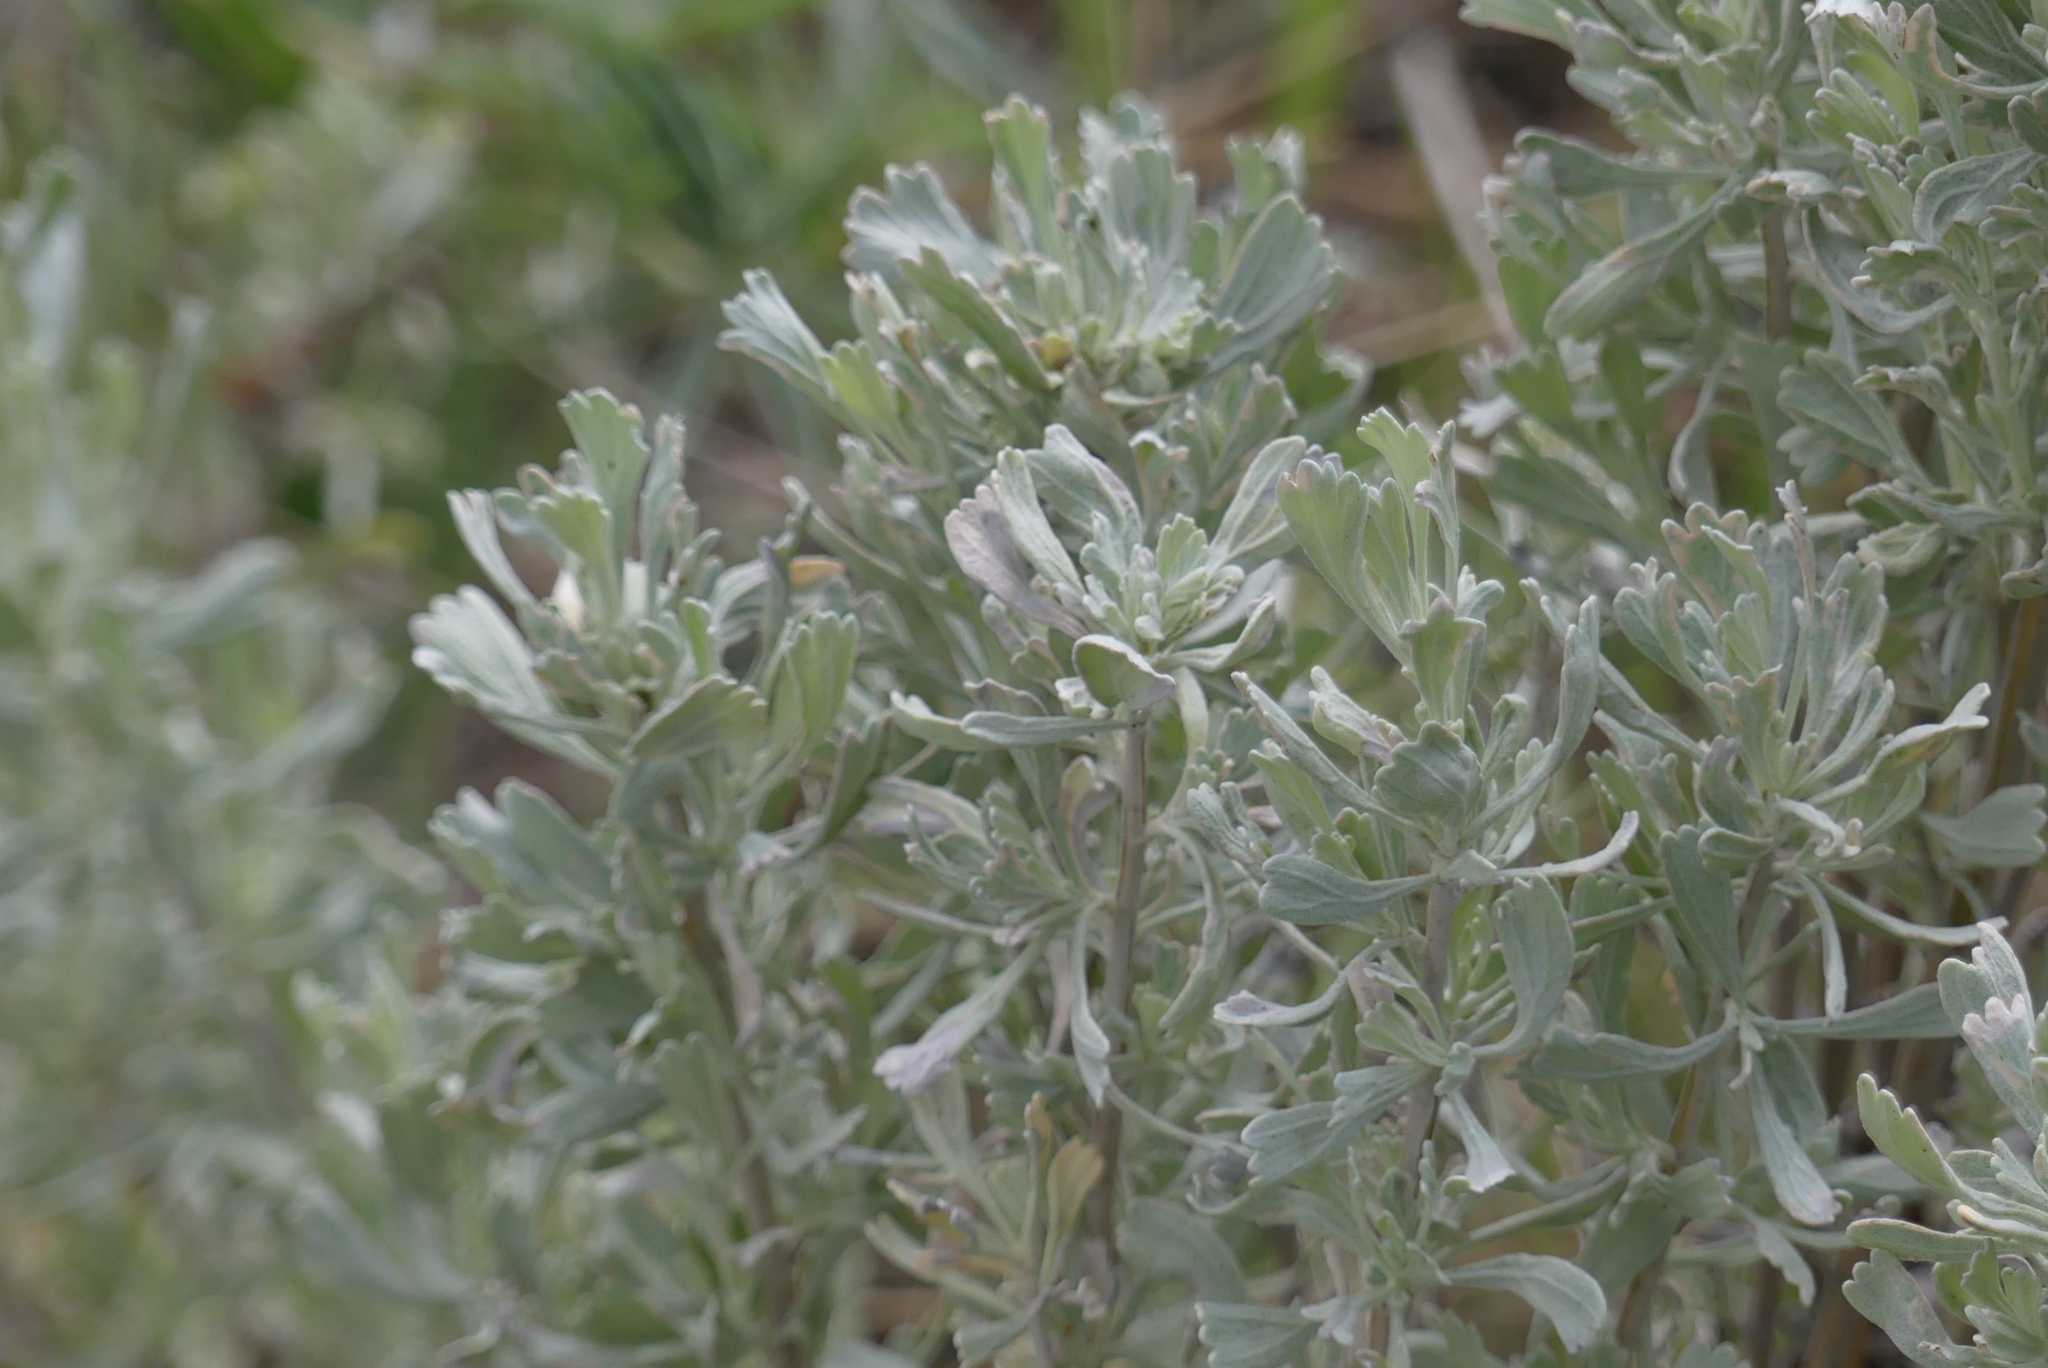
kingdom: Plantae
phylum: Tracheophyta
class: Magnoliopsida
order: Asterales
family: Asteraceae
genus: Artemisia
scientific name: Artemisia tridentata
